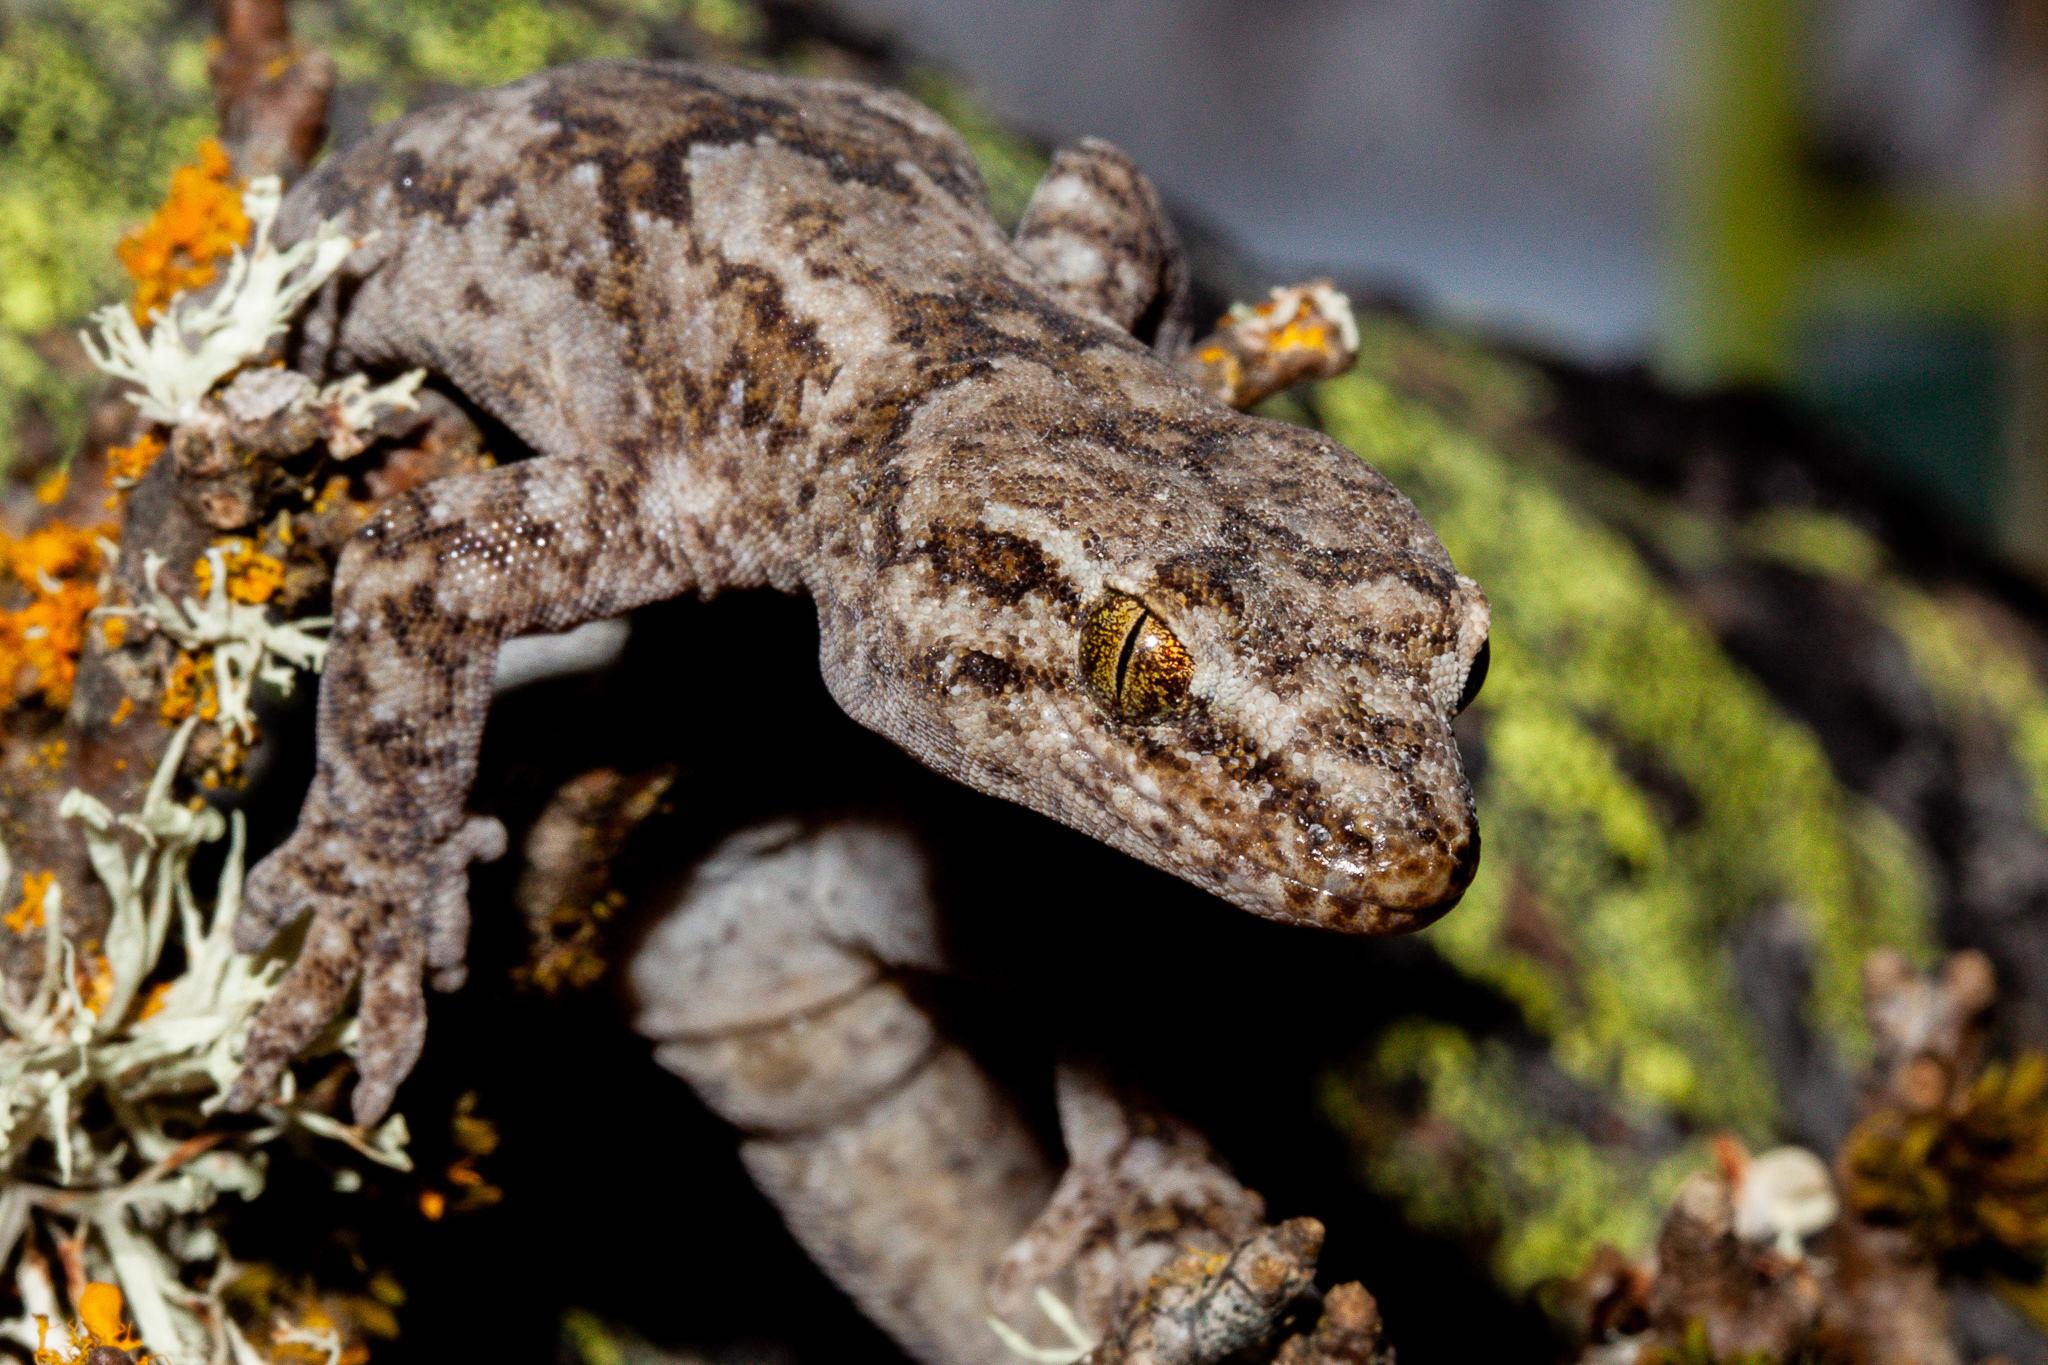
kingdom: Animalia
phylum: Chordata
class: Squamata
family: Diplodactylidae
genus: Woodworthia
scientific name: Woodworthia
